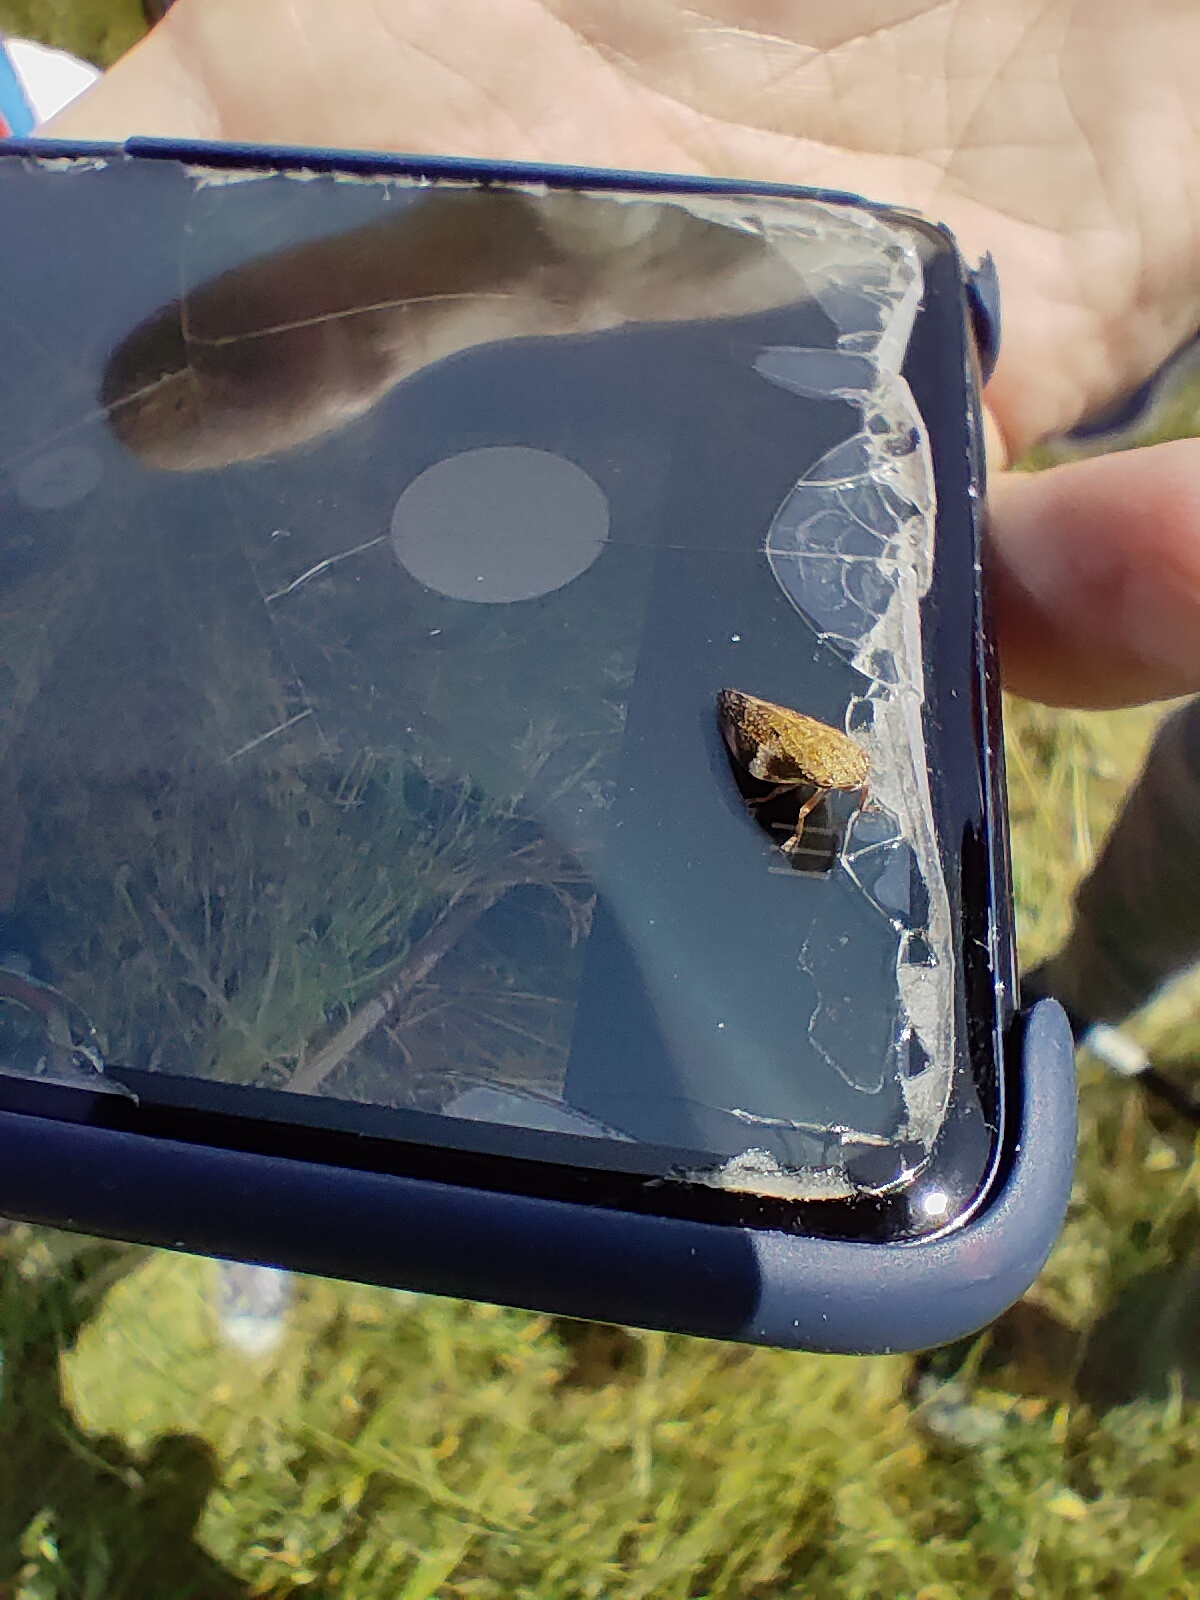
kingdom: Animalia
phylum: Arthropoda
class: Insecta
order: Hemiptera
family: Aphrophoridae
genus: Aphrophora
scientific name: Aphrophora alni
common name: European alder spittlebug
